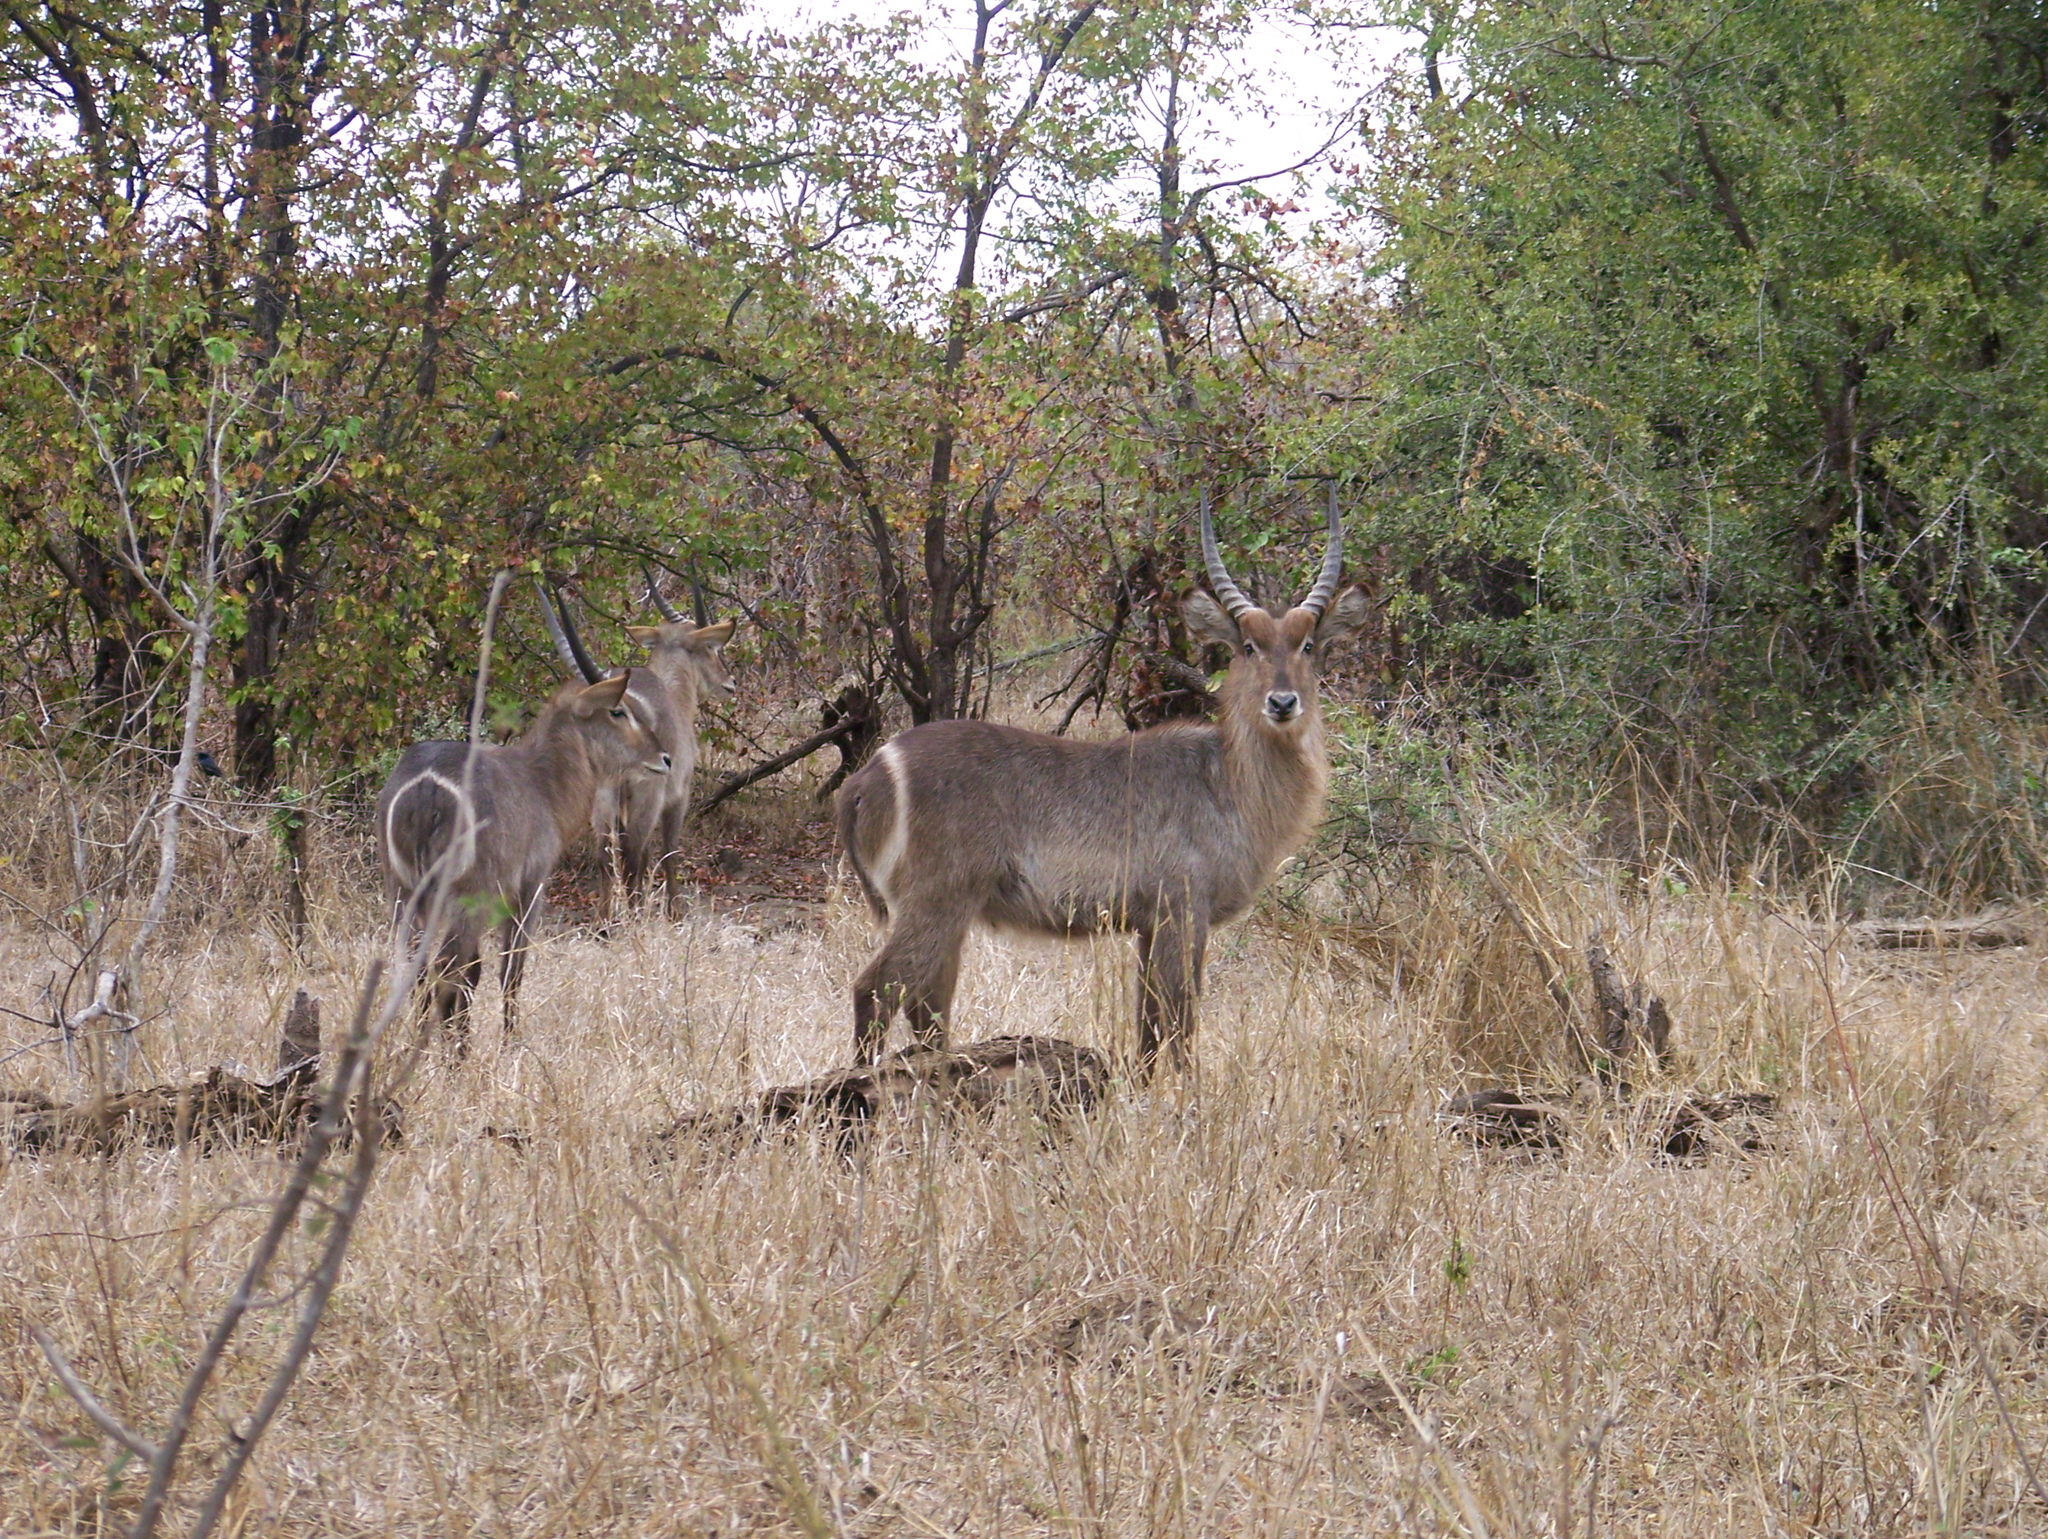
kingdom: Animalia
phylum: Chordata
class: Mammalia
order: Artiodactyla
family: Bovidae
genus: Kobus
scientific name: Kobus ellipsiprymnus
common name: Waterbuck
